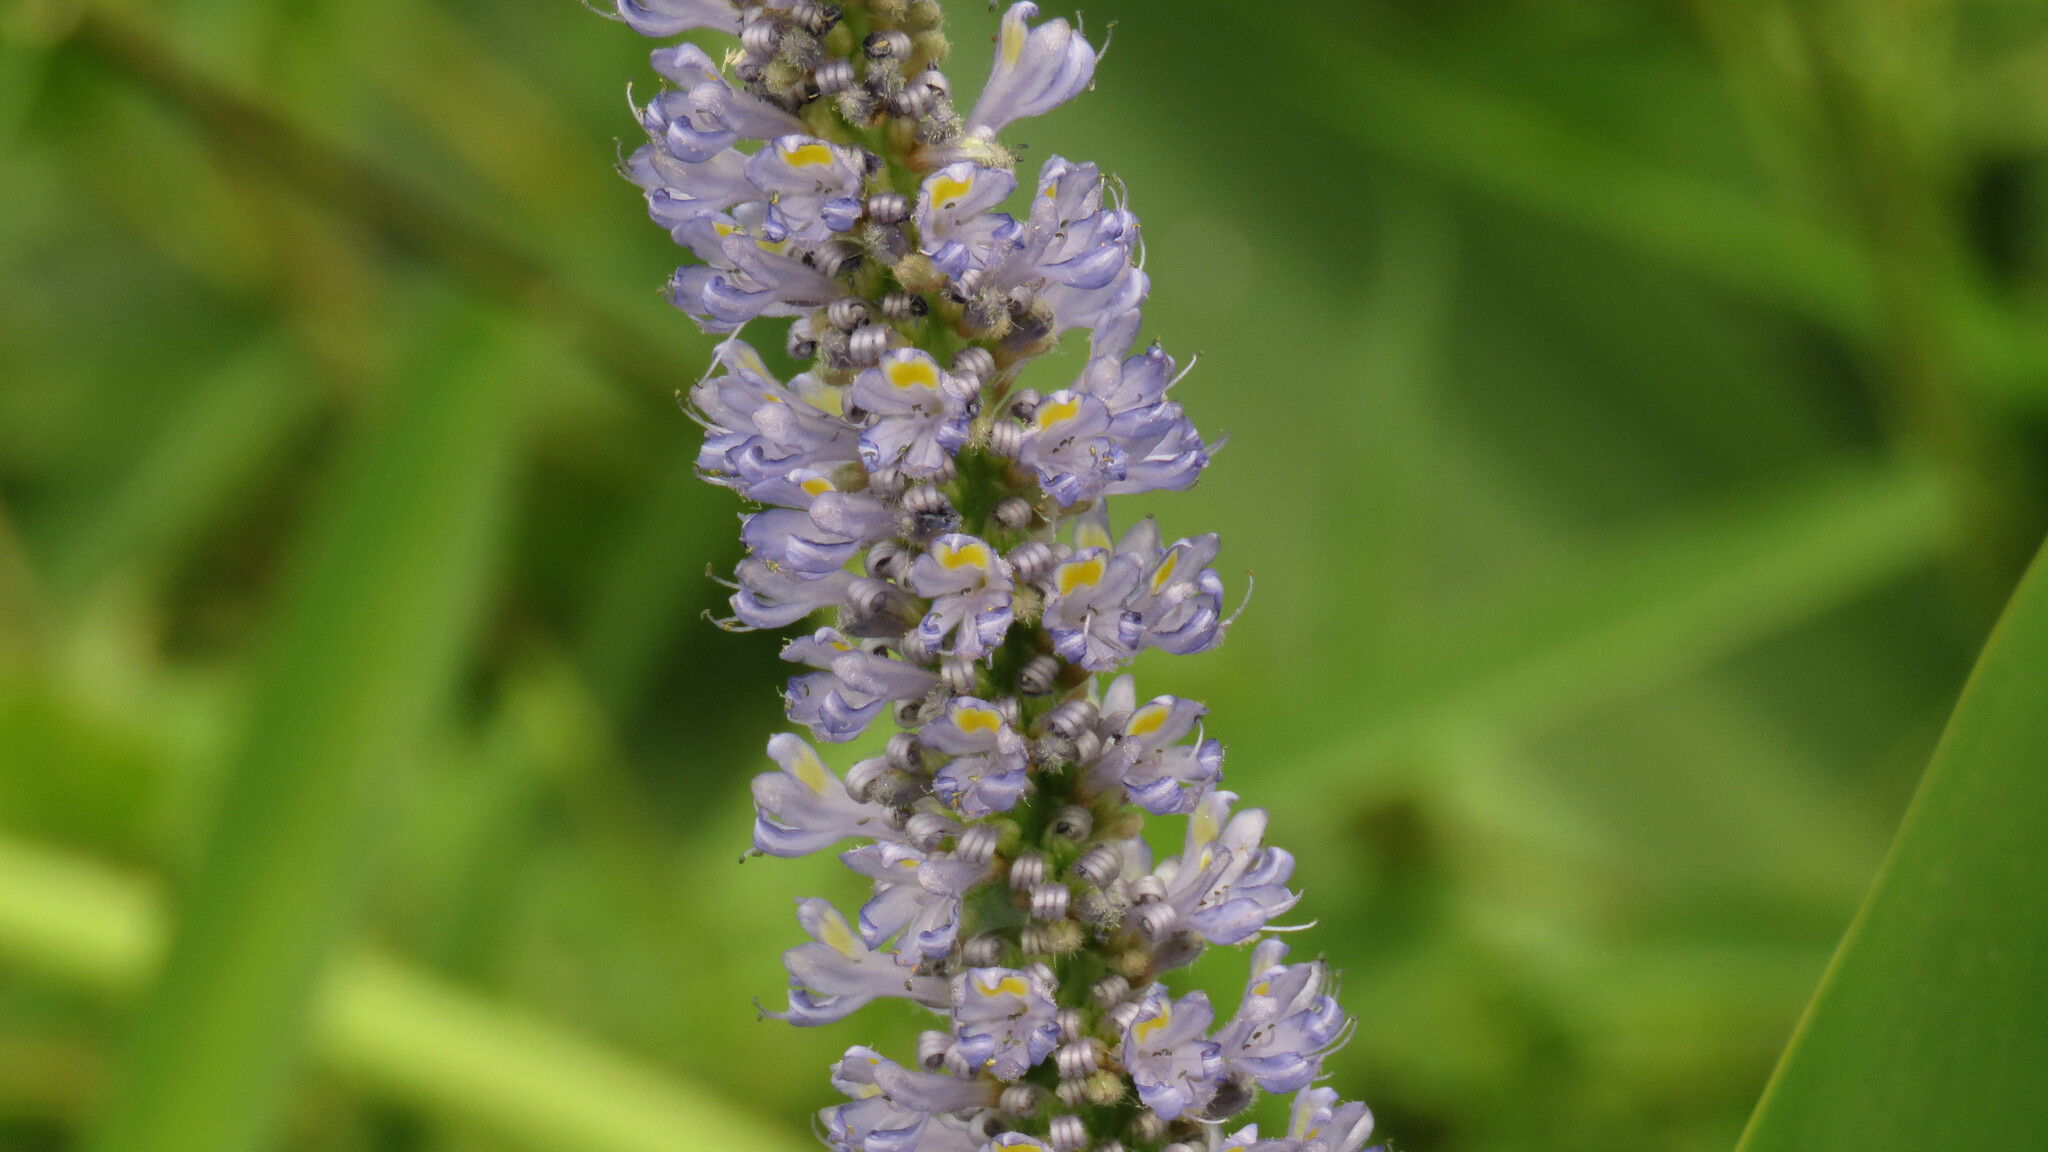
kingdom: Plantae
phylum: Tracheophyta
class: Liliopsida
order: Commelinales
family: Pontederiaceae
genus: Pontederia
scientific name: Pontederia cordata
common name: Pickerelweed
